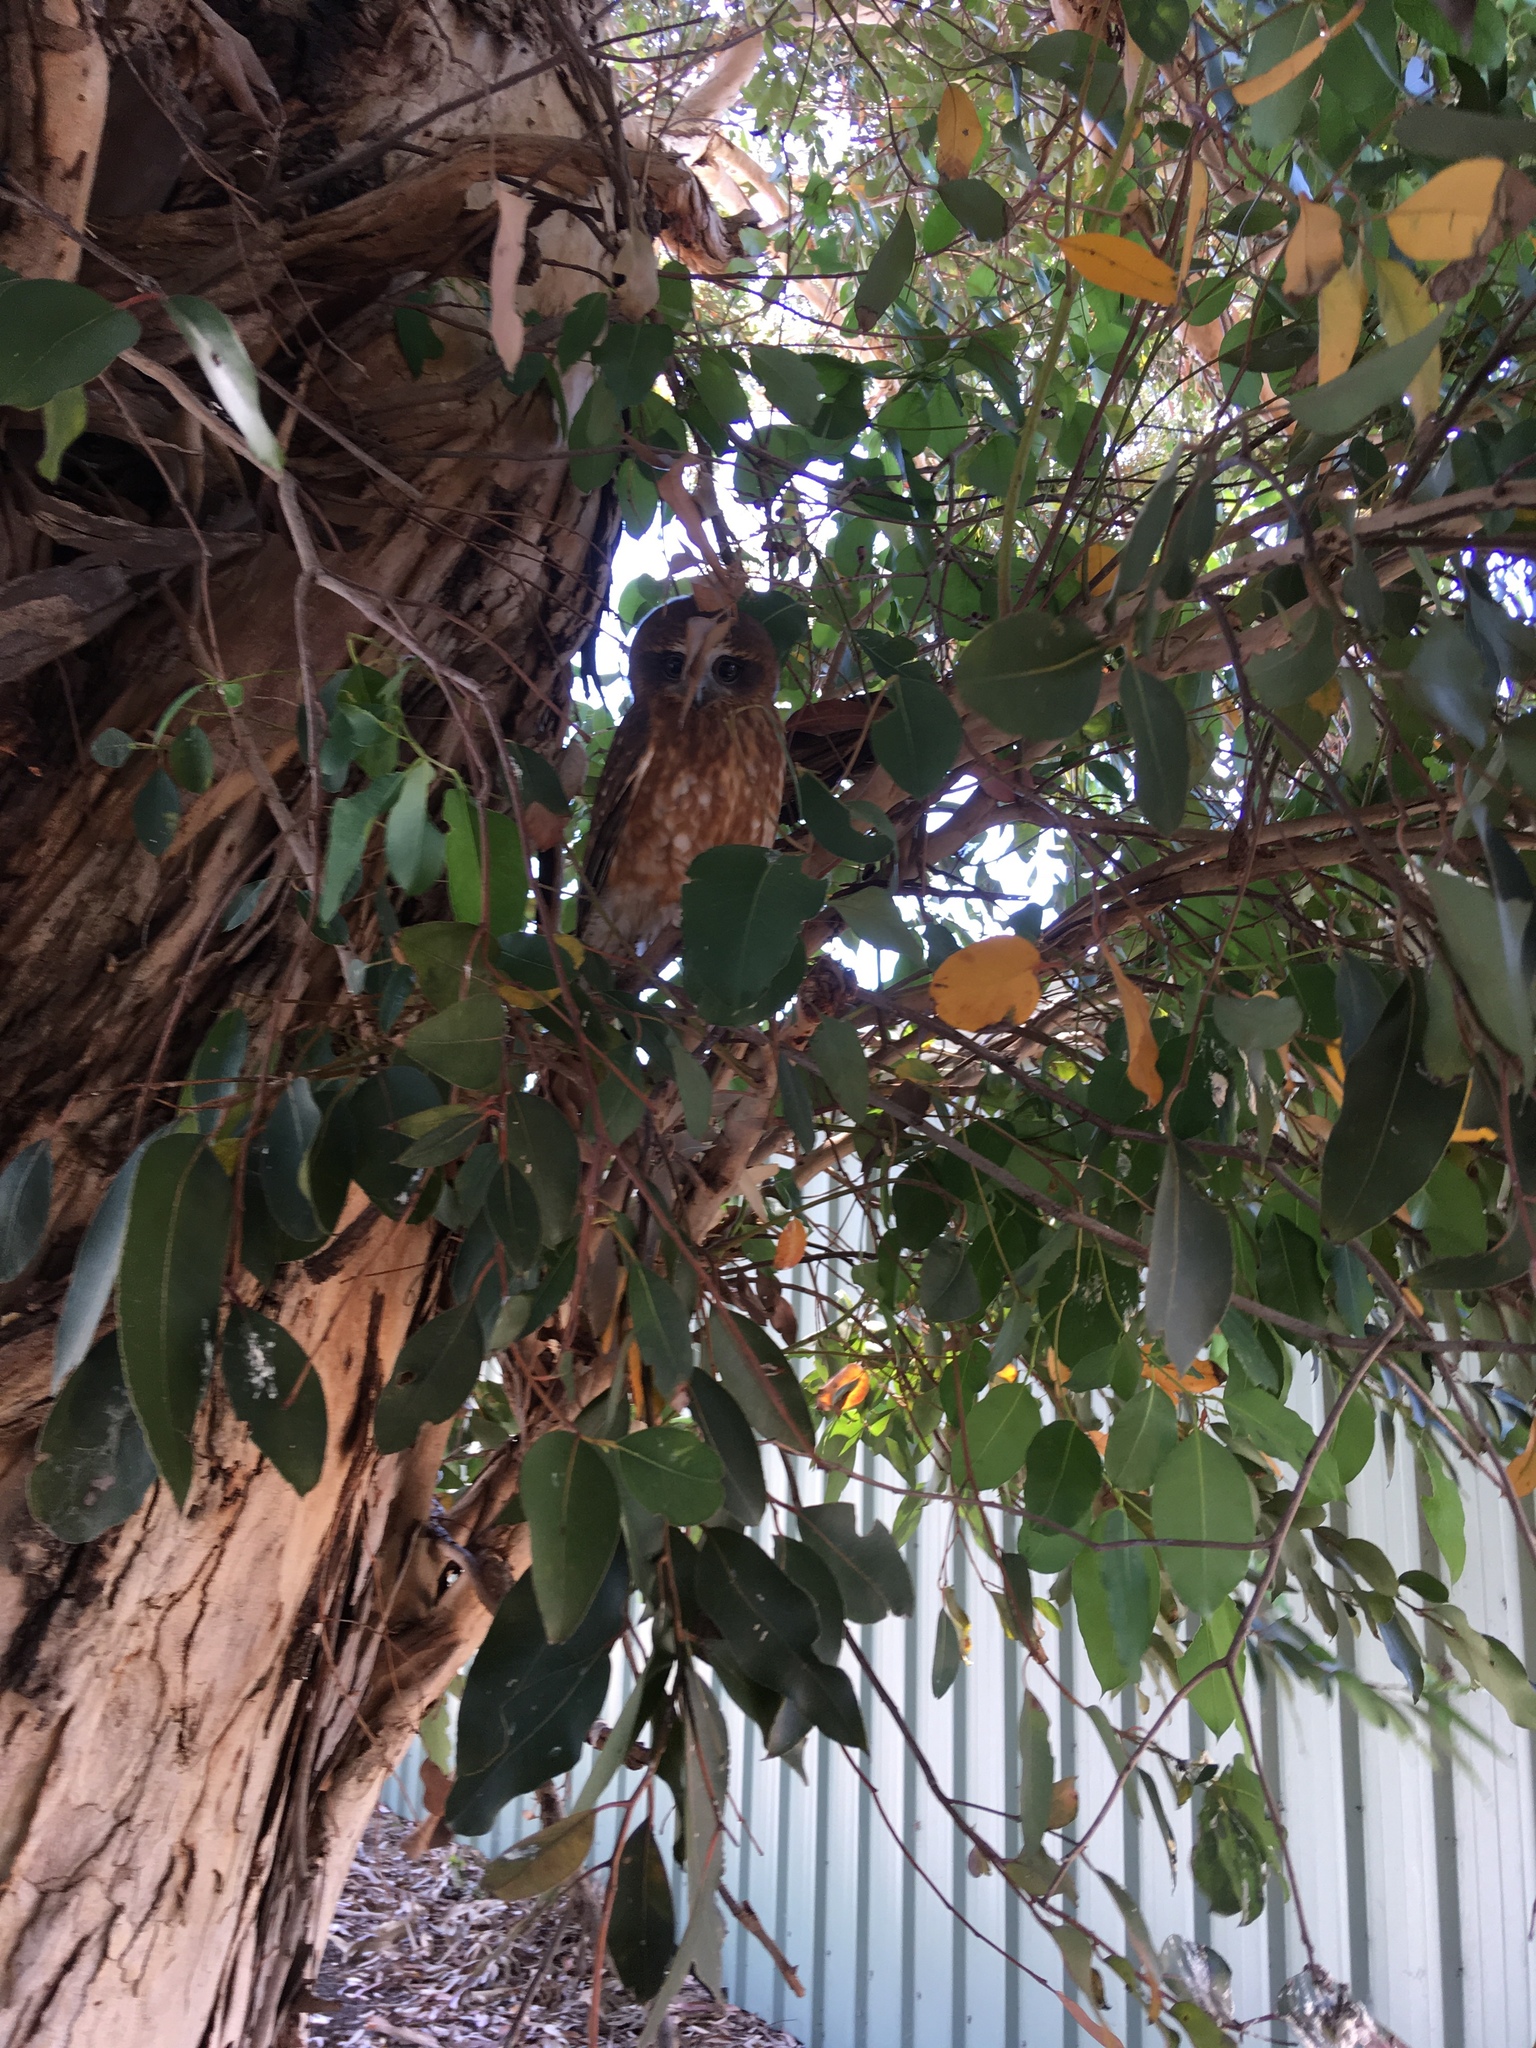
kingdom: Animalia
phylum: Chordata
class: Aves
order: Strigiformes
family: Strigidae
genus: Ninox
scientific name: Ninox boobook
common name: Southern boobook
